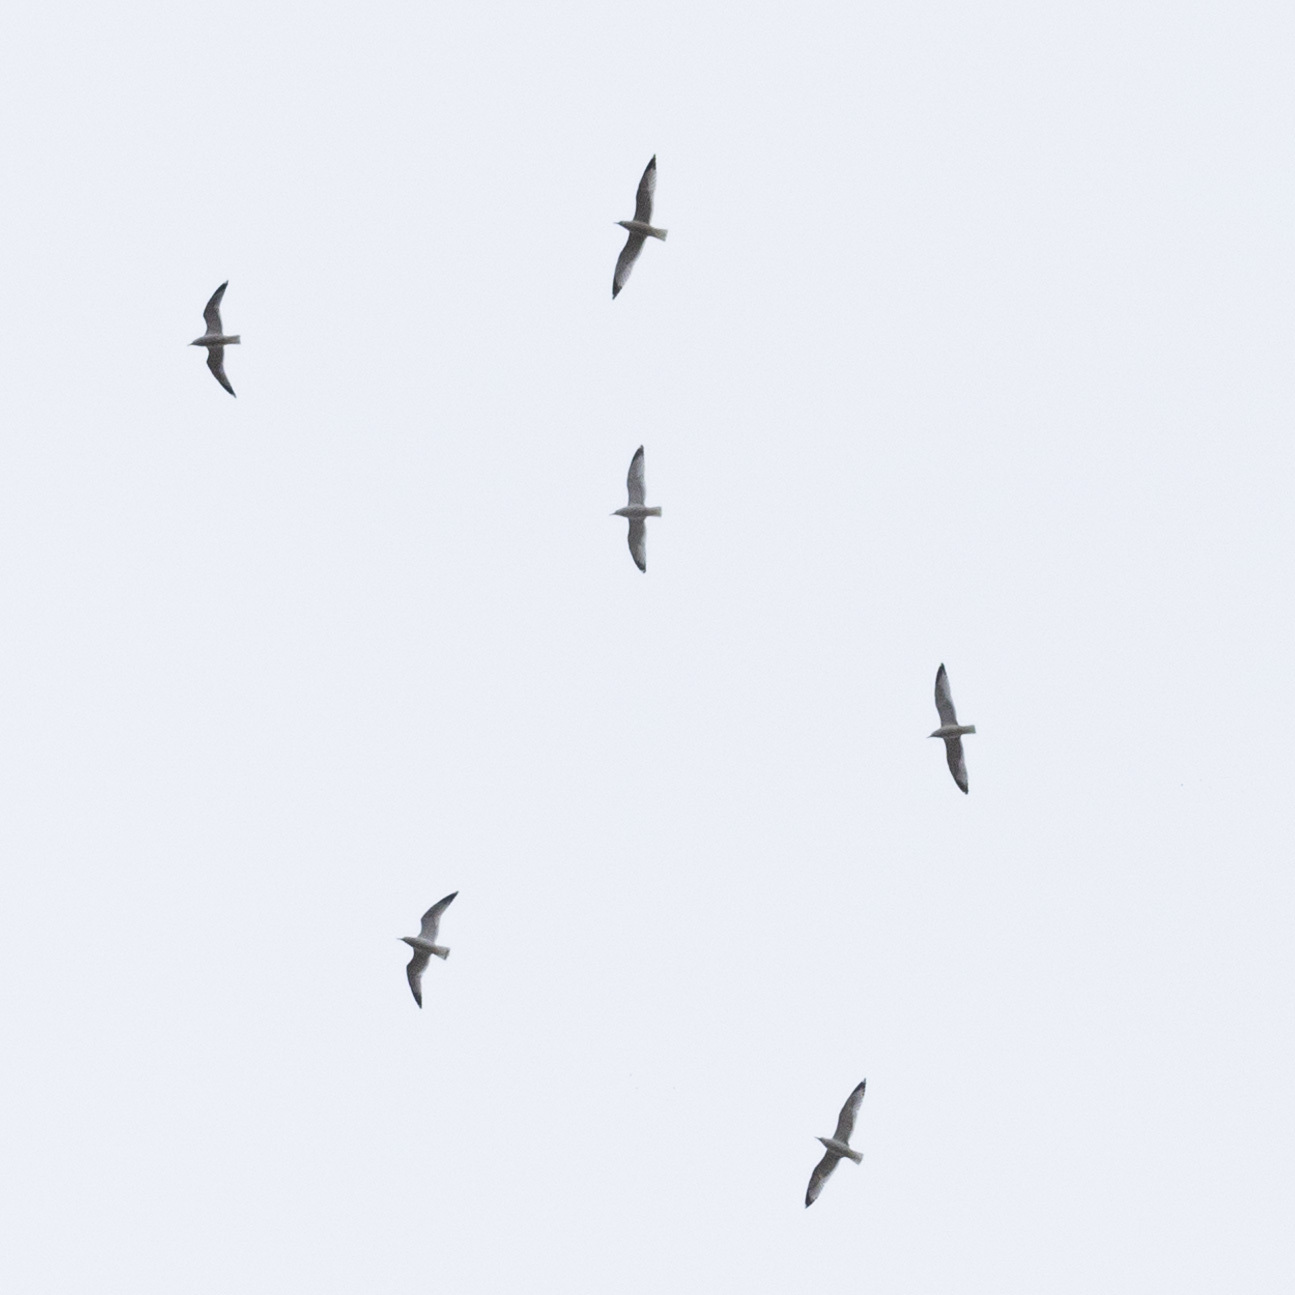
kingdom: Animalia
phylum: Chordata
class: Aves
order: Charadriiformes
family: Laridae
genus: Larus
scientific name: Larus delawarensis
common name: Ring-billed gull
